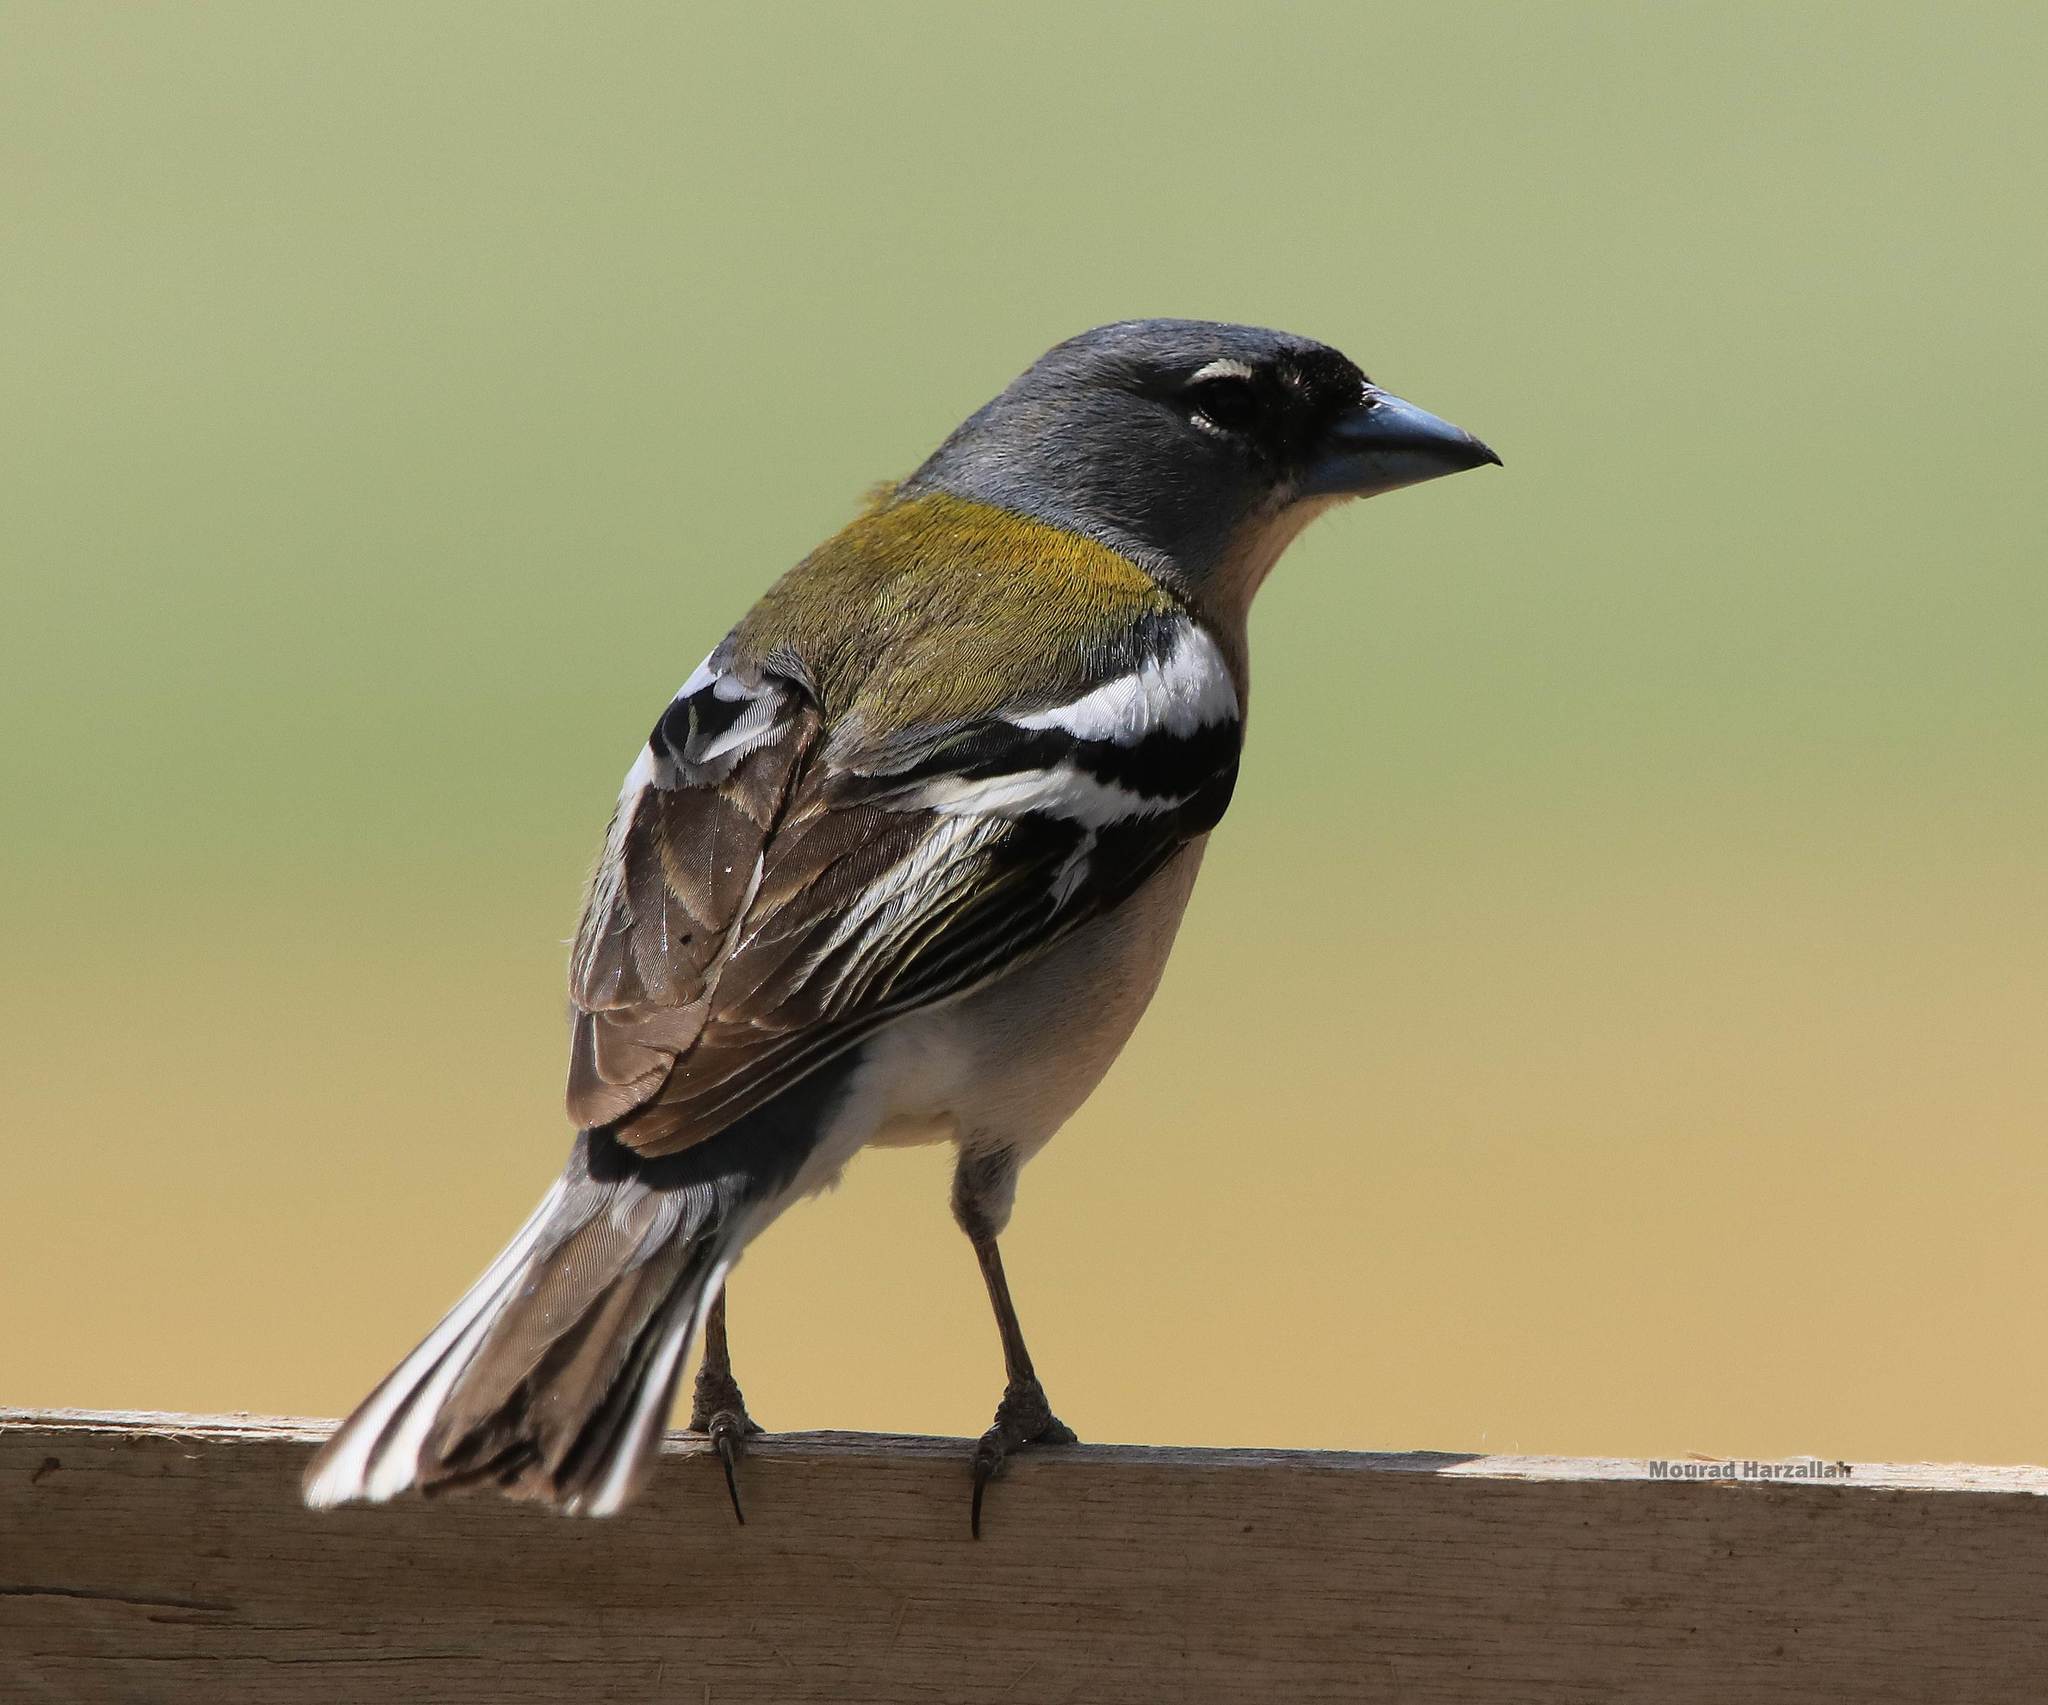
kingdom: Animalia
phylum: Chordata
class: Aves
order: Passeriformes
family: Fringillidae
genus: Fringilla
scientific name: Fringilla spodiogenys
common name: African chaffinch
